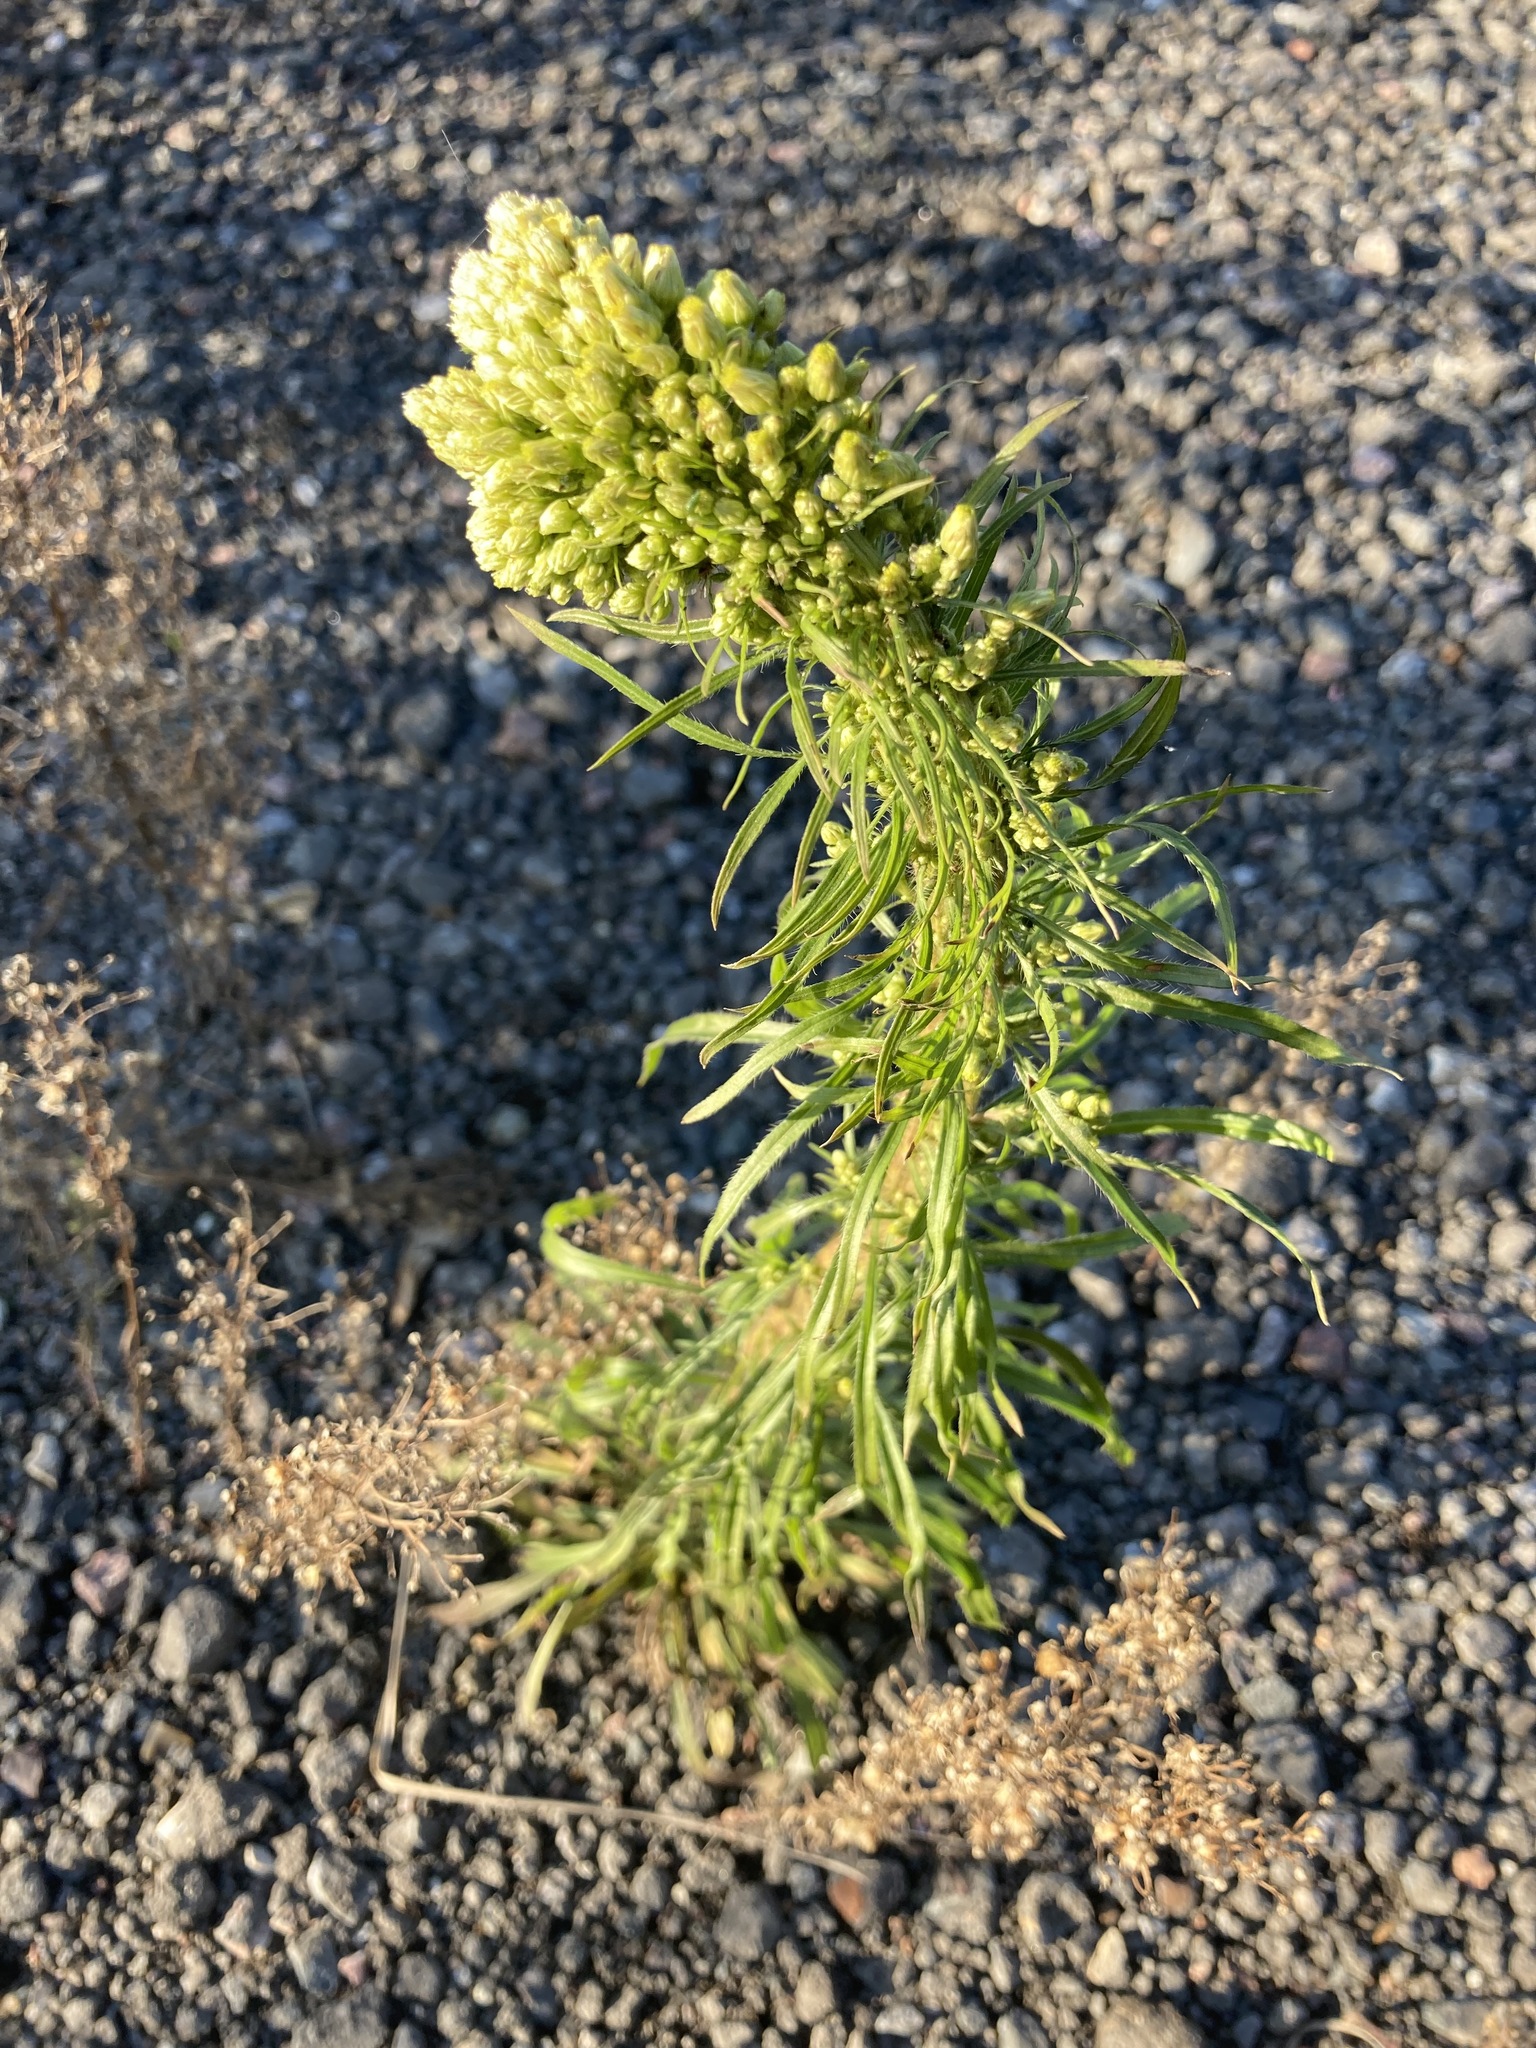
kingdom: Plantae
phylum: Tracheophyta
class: Magnoliopsida
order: Asterales
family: Asteraceae
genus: Erigeron
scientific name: Erigeron canadensis
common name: Canadian fleabane
